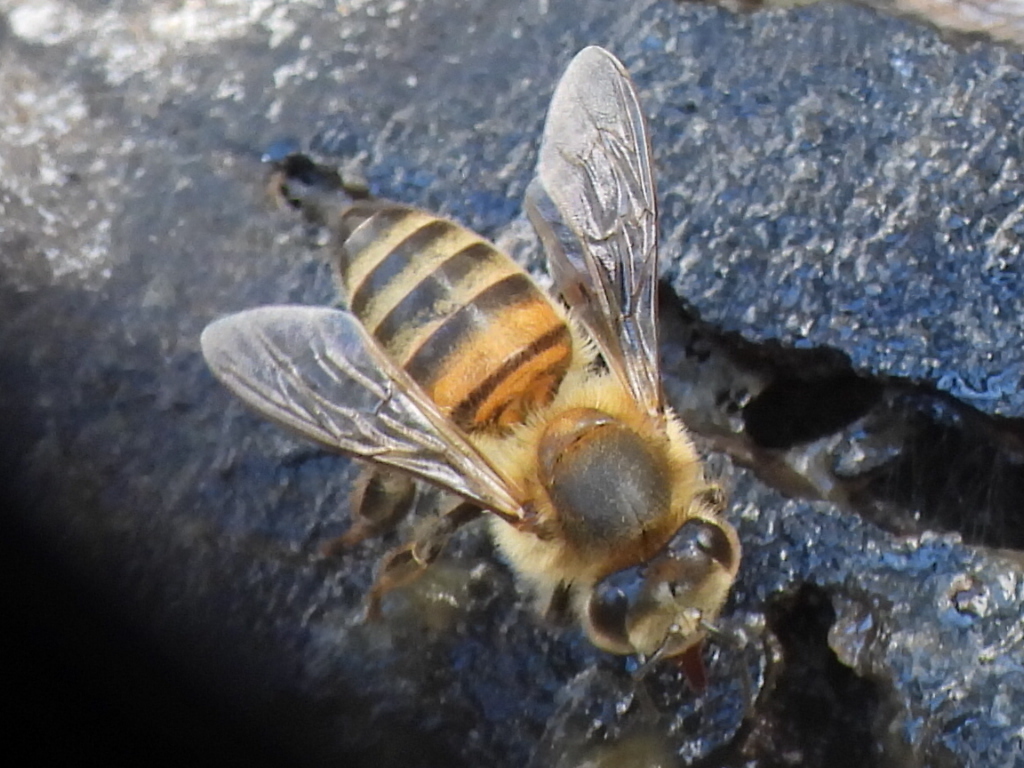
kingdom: Animalia
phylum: Arthropoda
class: Insecta
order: Hymenoptera
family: Apidae
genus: Apis
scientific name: Apis mellifera
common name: Honey bee
